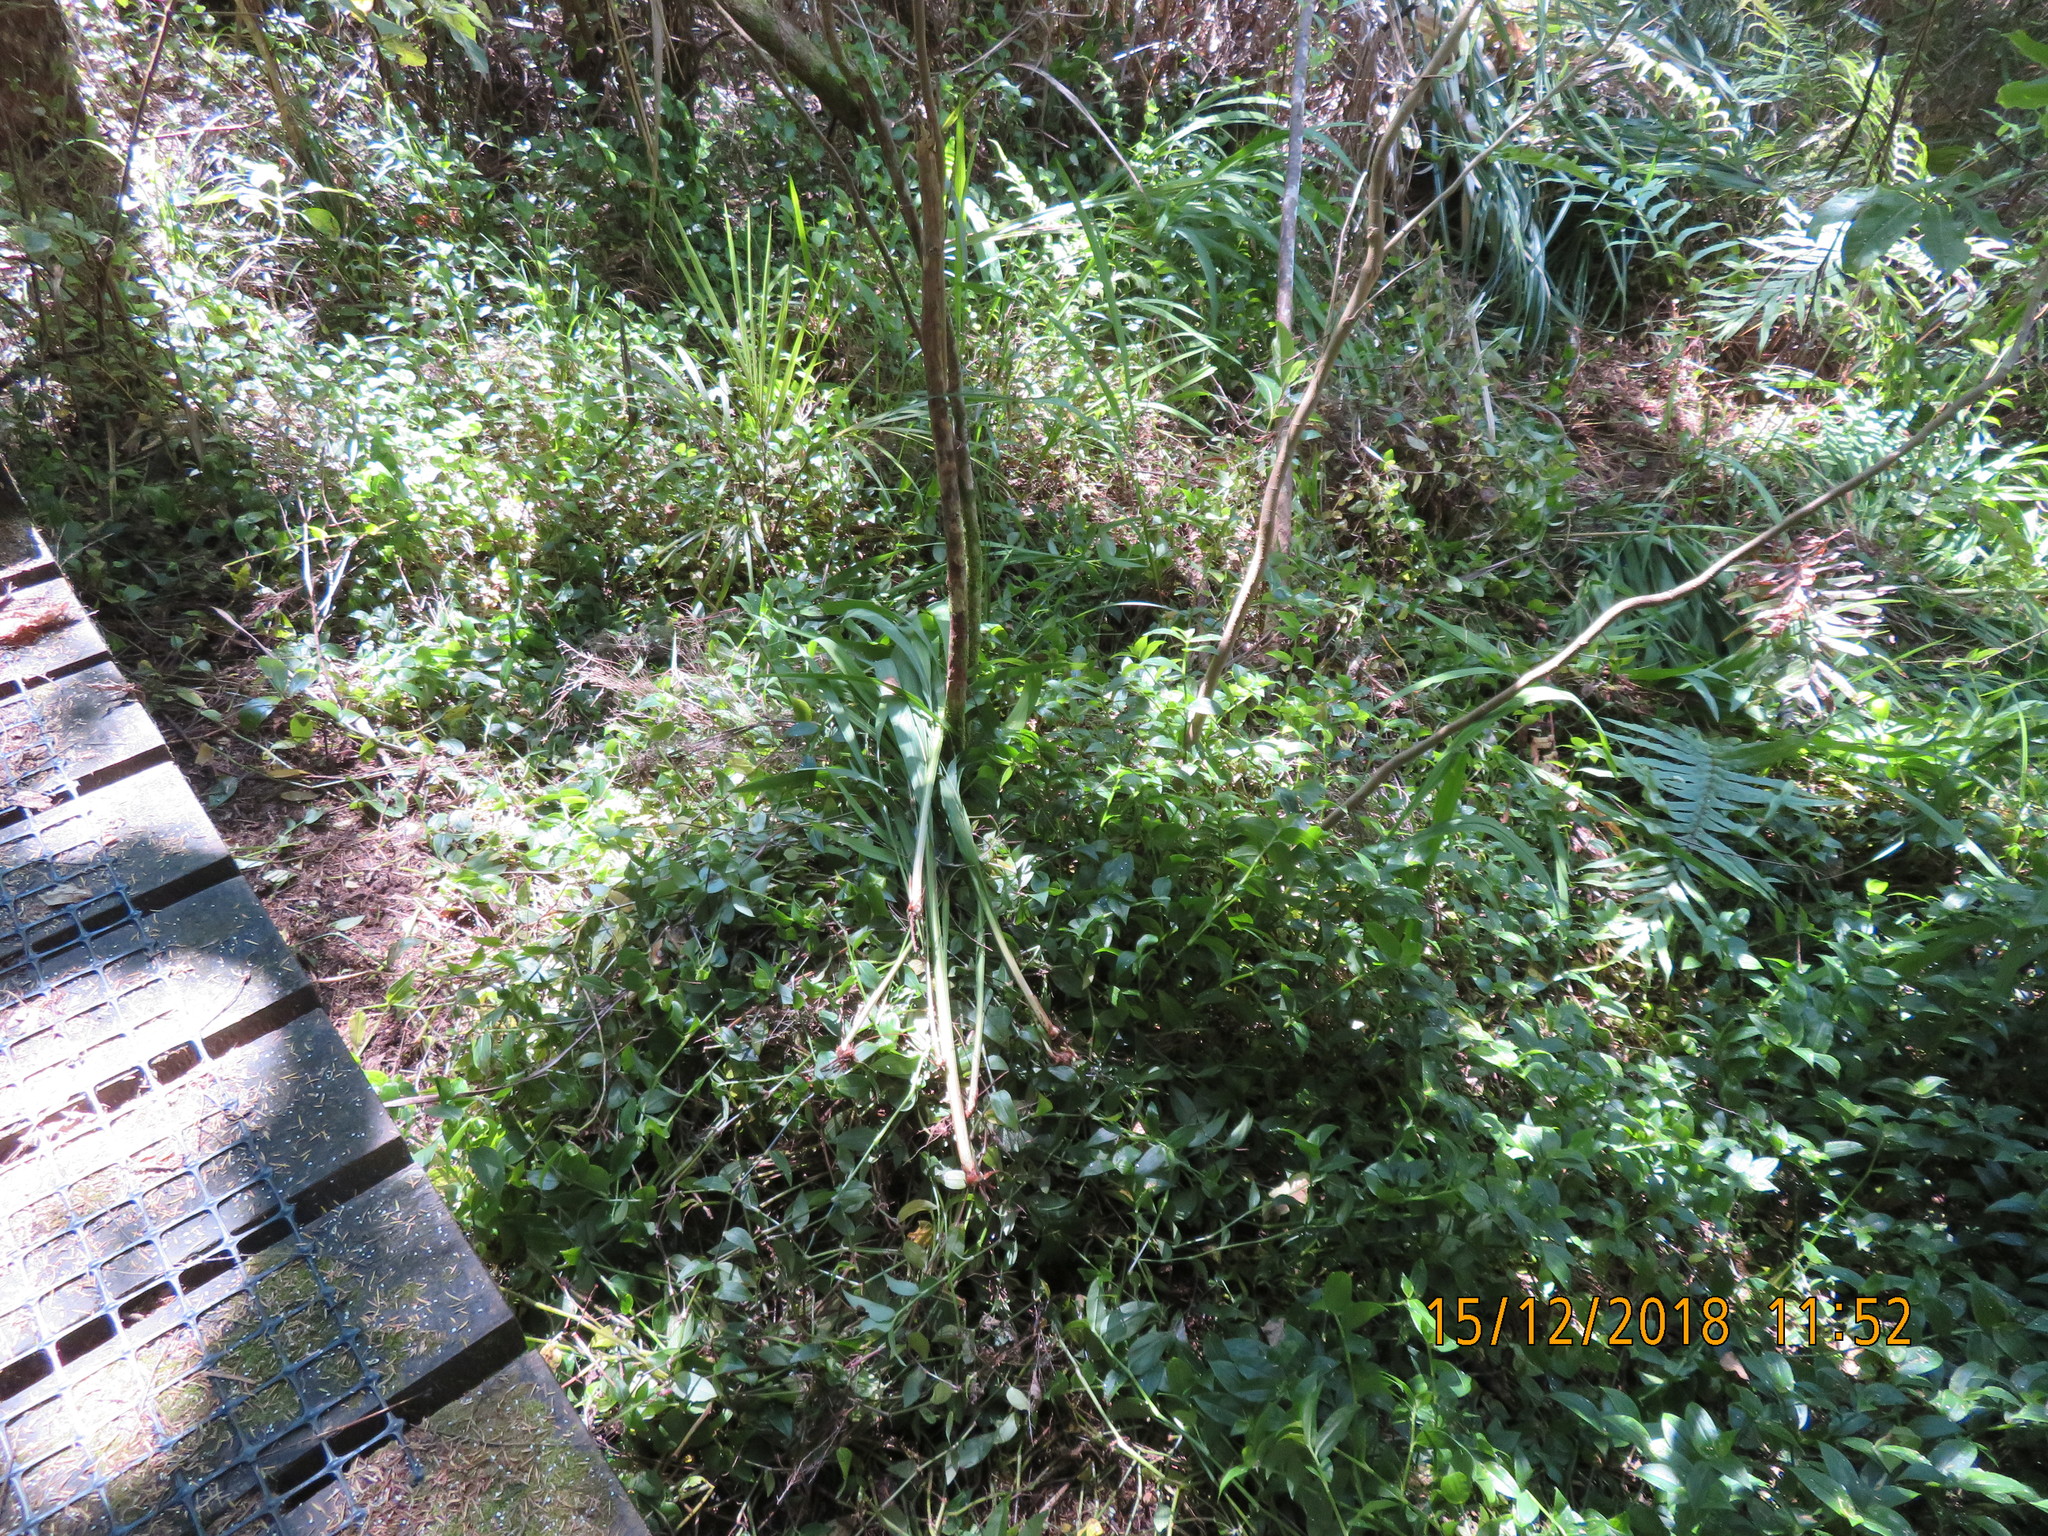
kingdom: Plantae
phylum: Tracheophyta
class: Liliopsida
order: Asparagales
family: Iridaceae
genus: Crocosmia
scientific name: Crocosmia crocosmiiflora
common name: Montbretia
